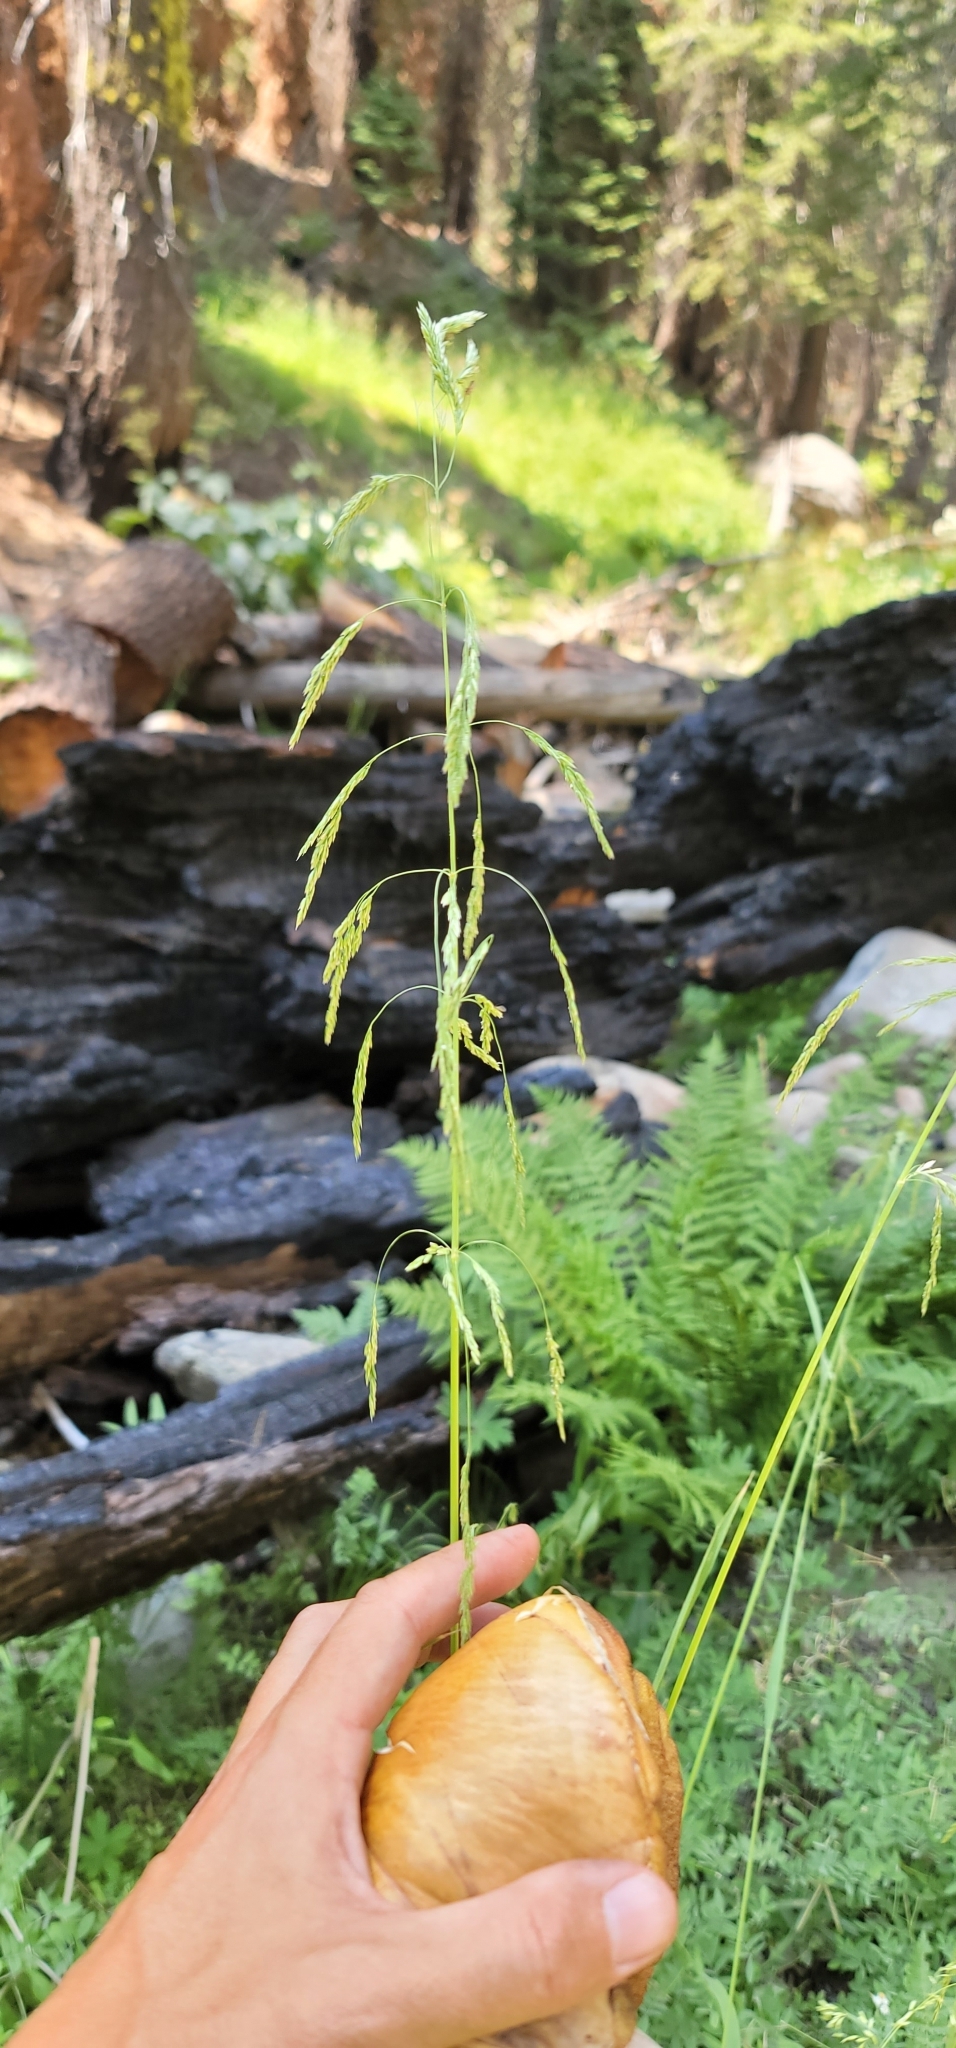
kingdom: Plantae
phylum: Tracheophyta
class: Liliopsida
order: Poales
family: Poaceae
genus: Cinna
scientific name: Cinna bolanderi
